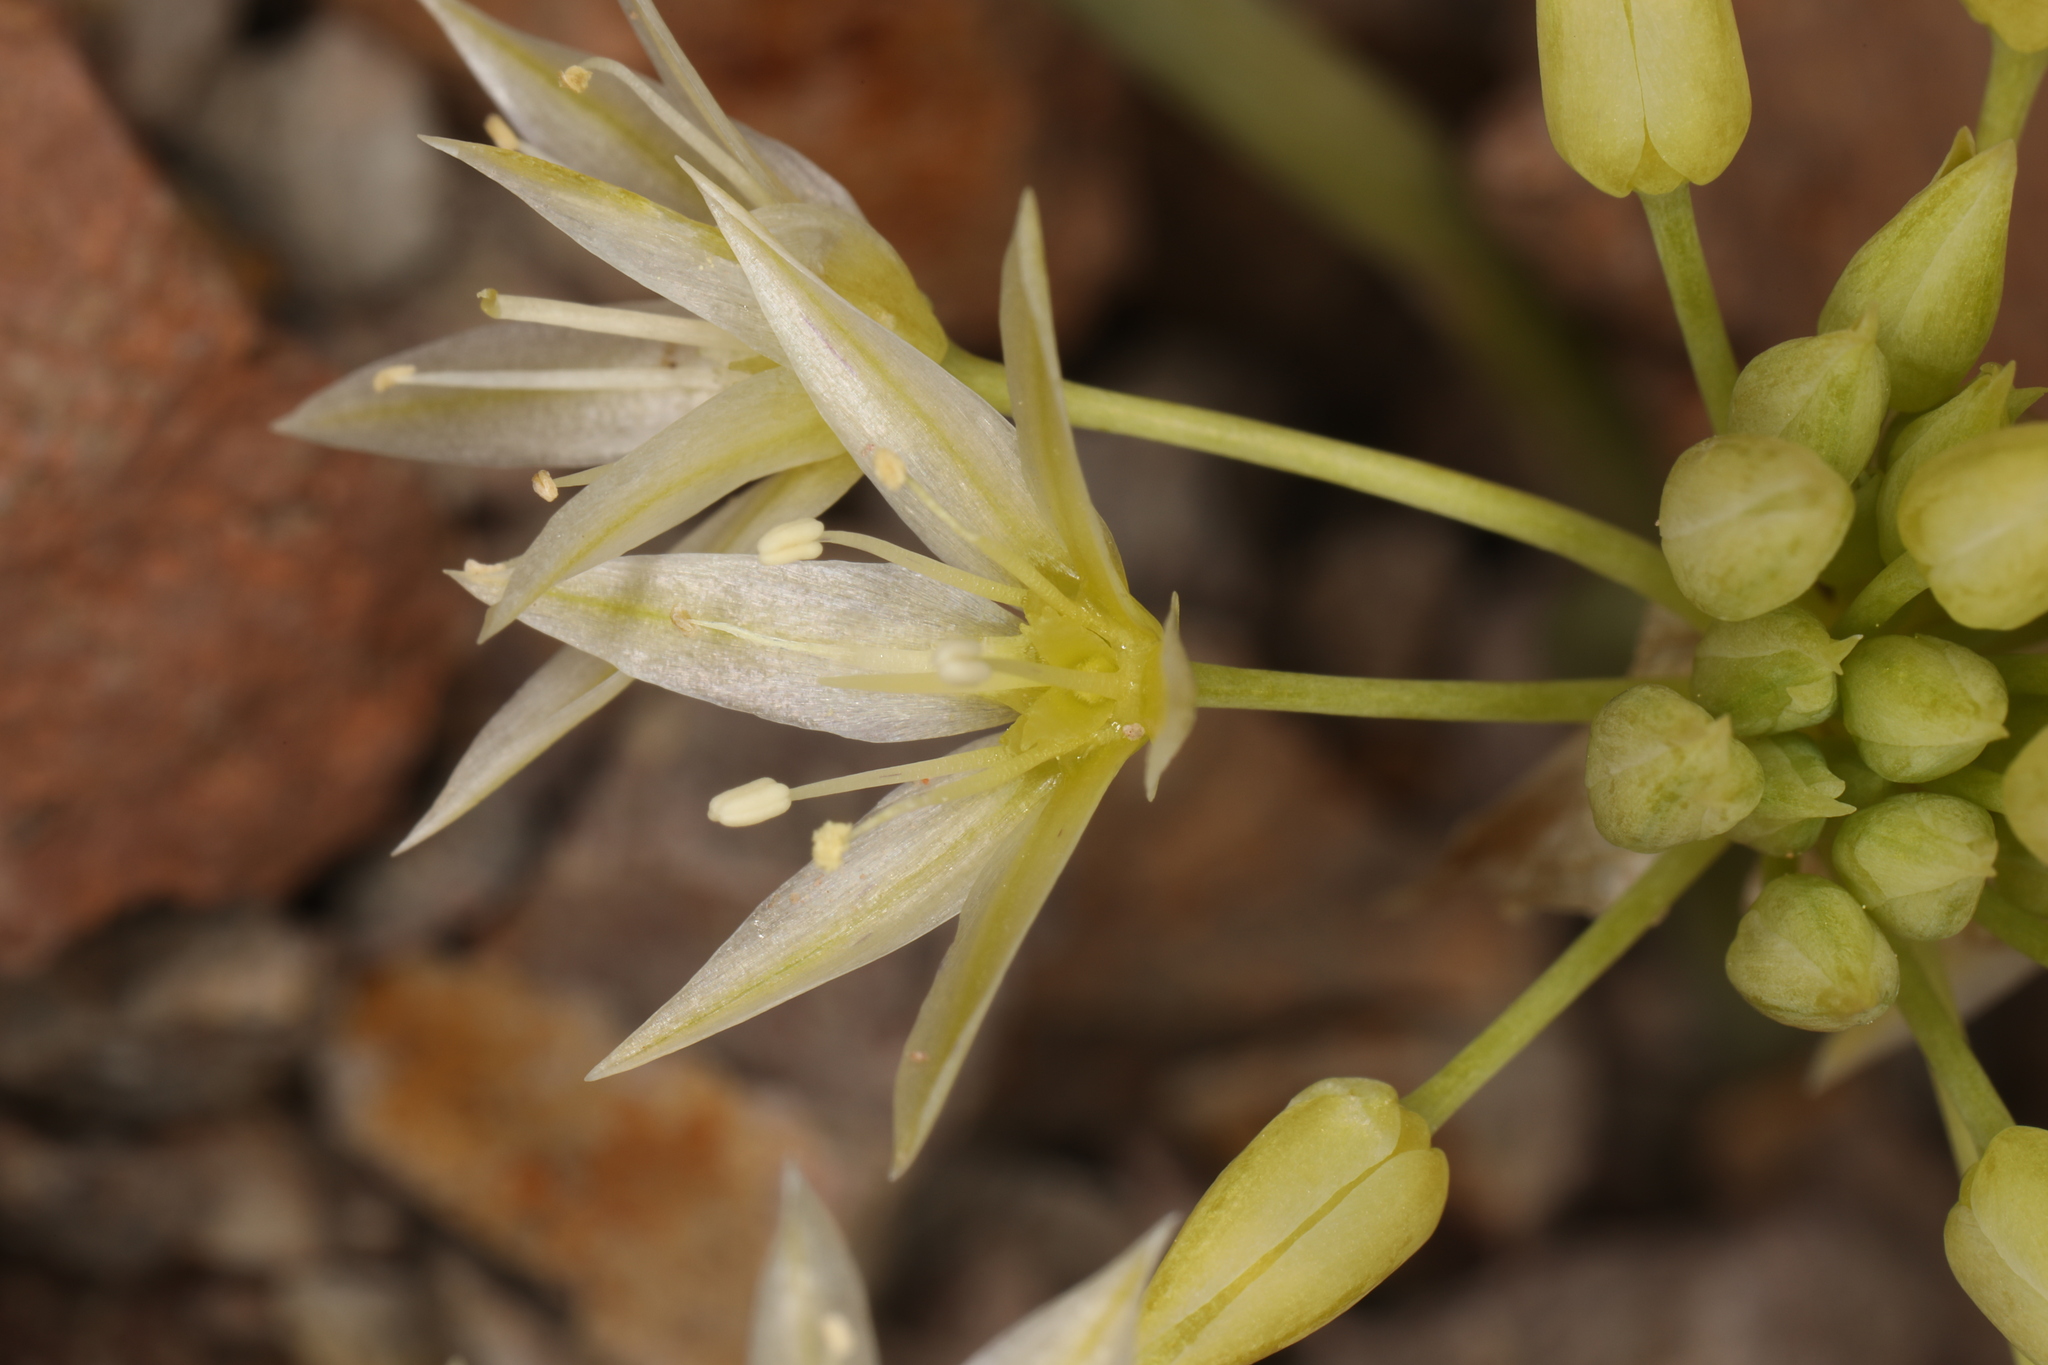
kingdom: Plantae
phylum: Tracheophyta
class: Liliopsida
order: Asparagales
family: Amaryllidaceae
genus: Allium
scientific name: Allium atrorubens
